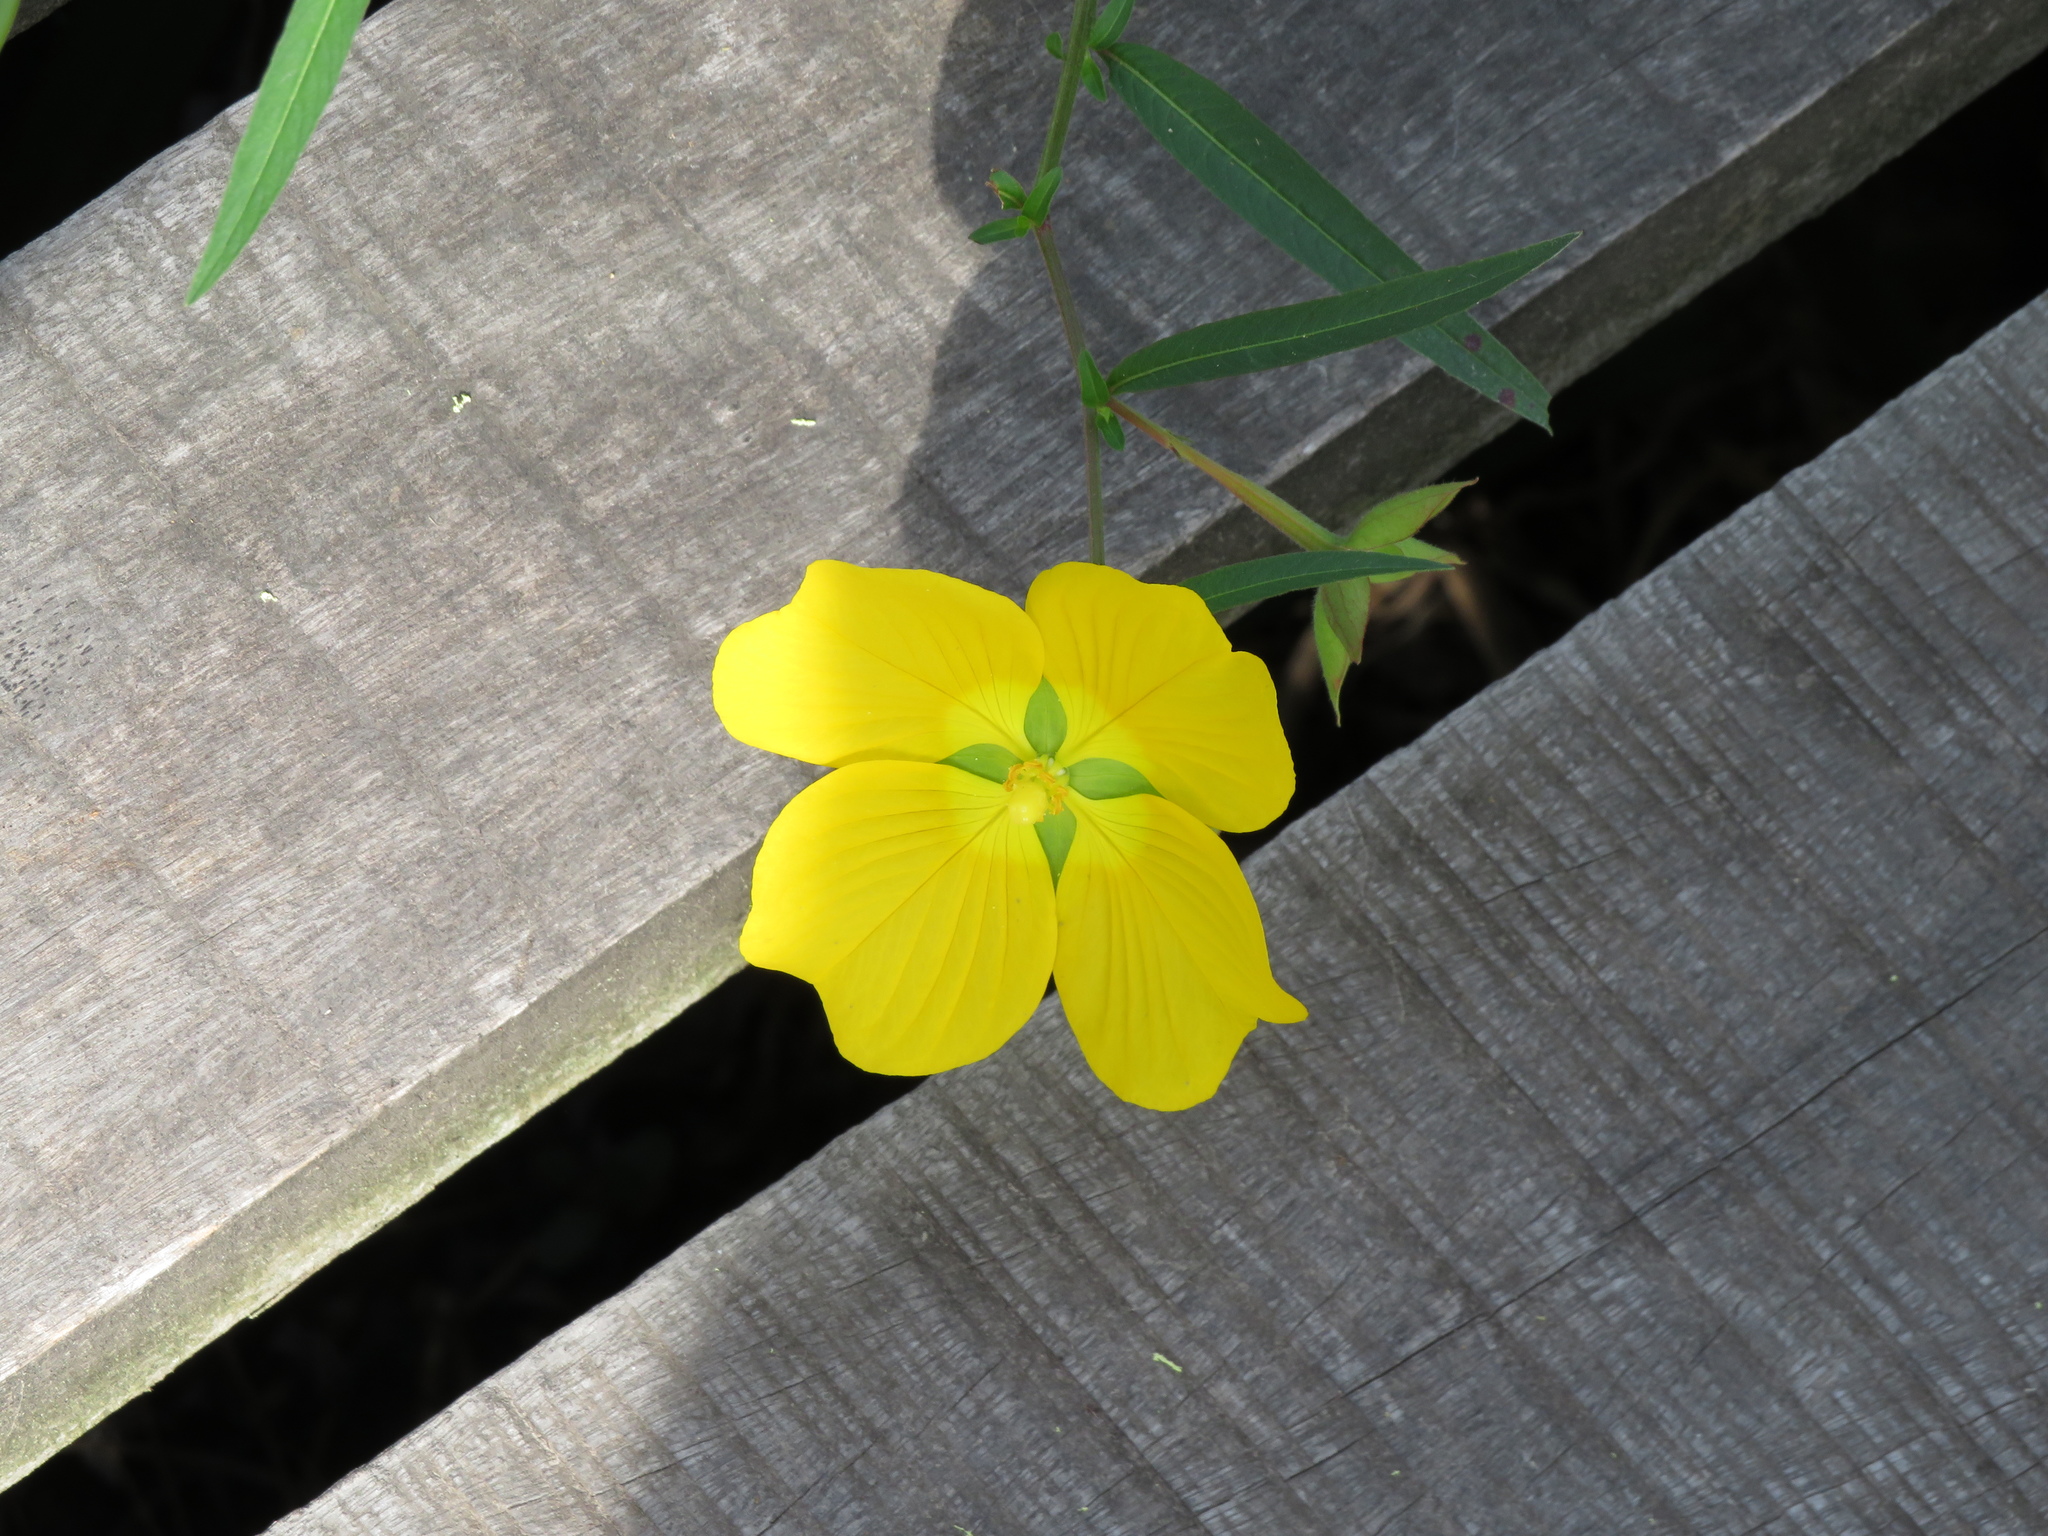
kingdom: Plantae
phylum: Tracheophyta
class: Magnoliopsida
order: Myrtales
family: Onagraceae
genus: Ludwigia
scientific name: Ludwigia bonariensis
